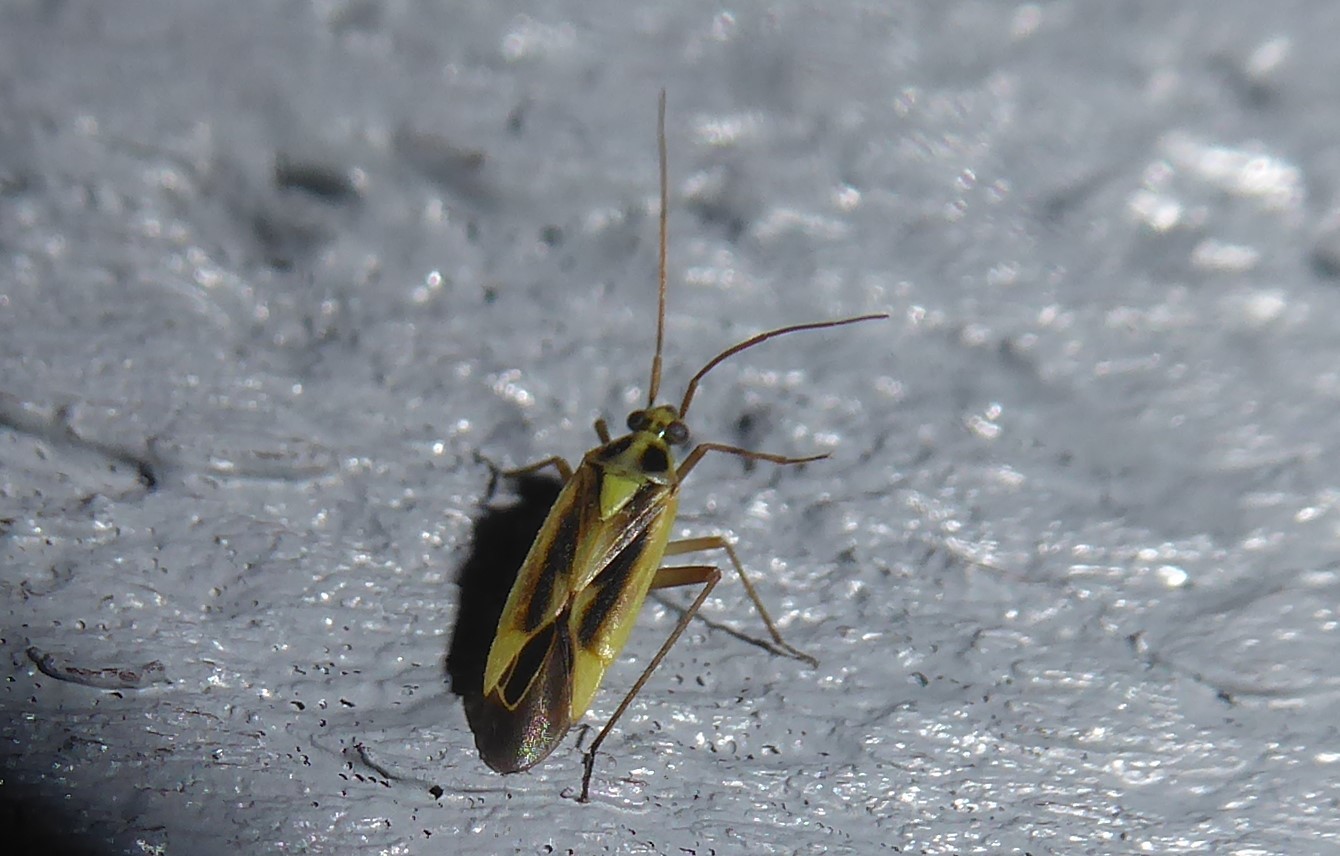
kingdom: Animalia
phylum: Arthropoda
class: Insecta
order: Hemiptera
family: Miridae
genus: Stenotus
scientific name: Stenotus binotatus
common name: Plant bug
